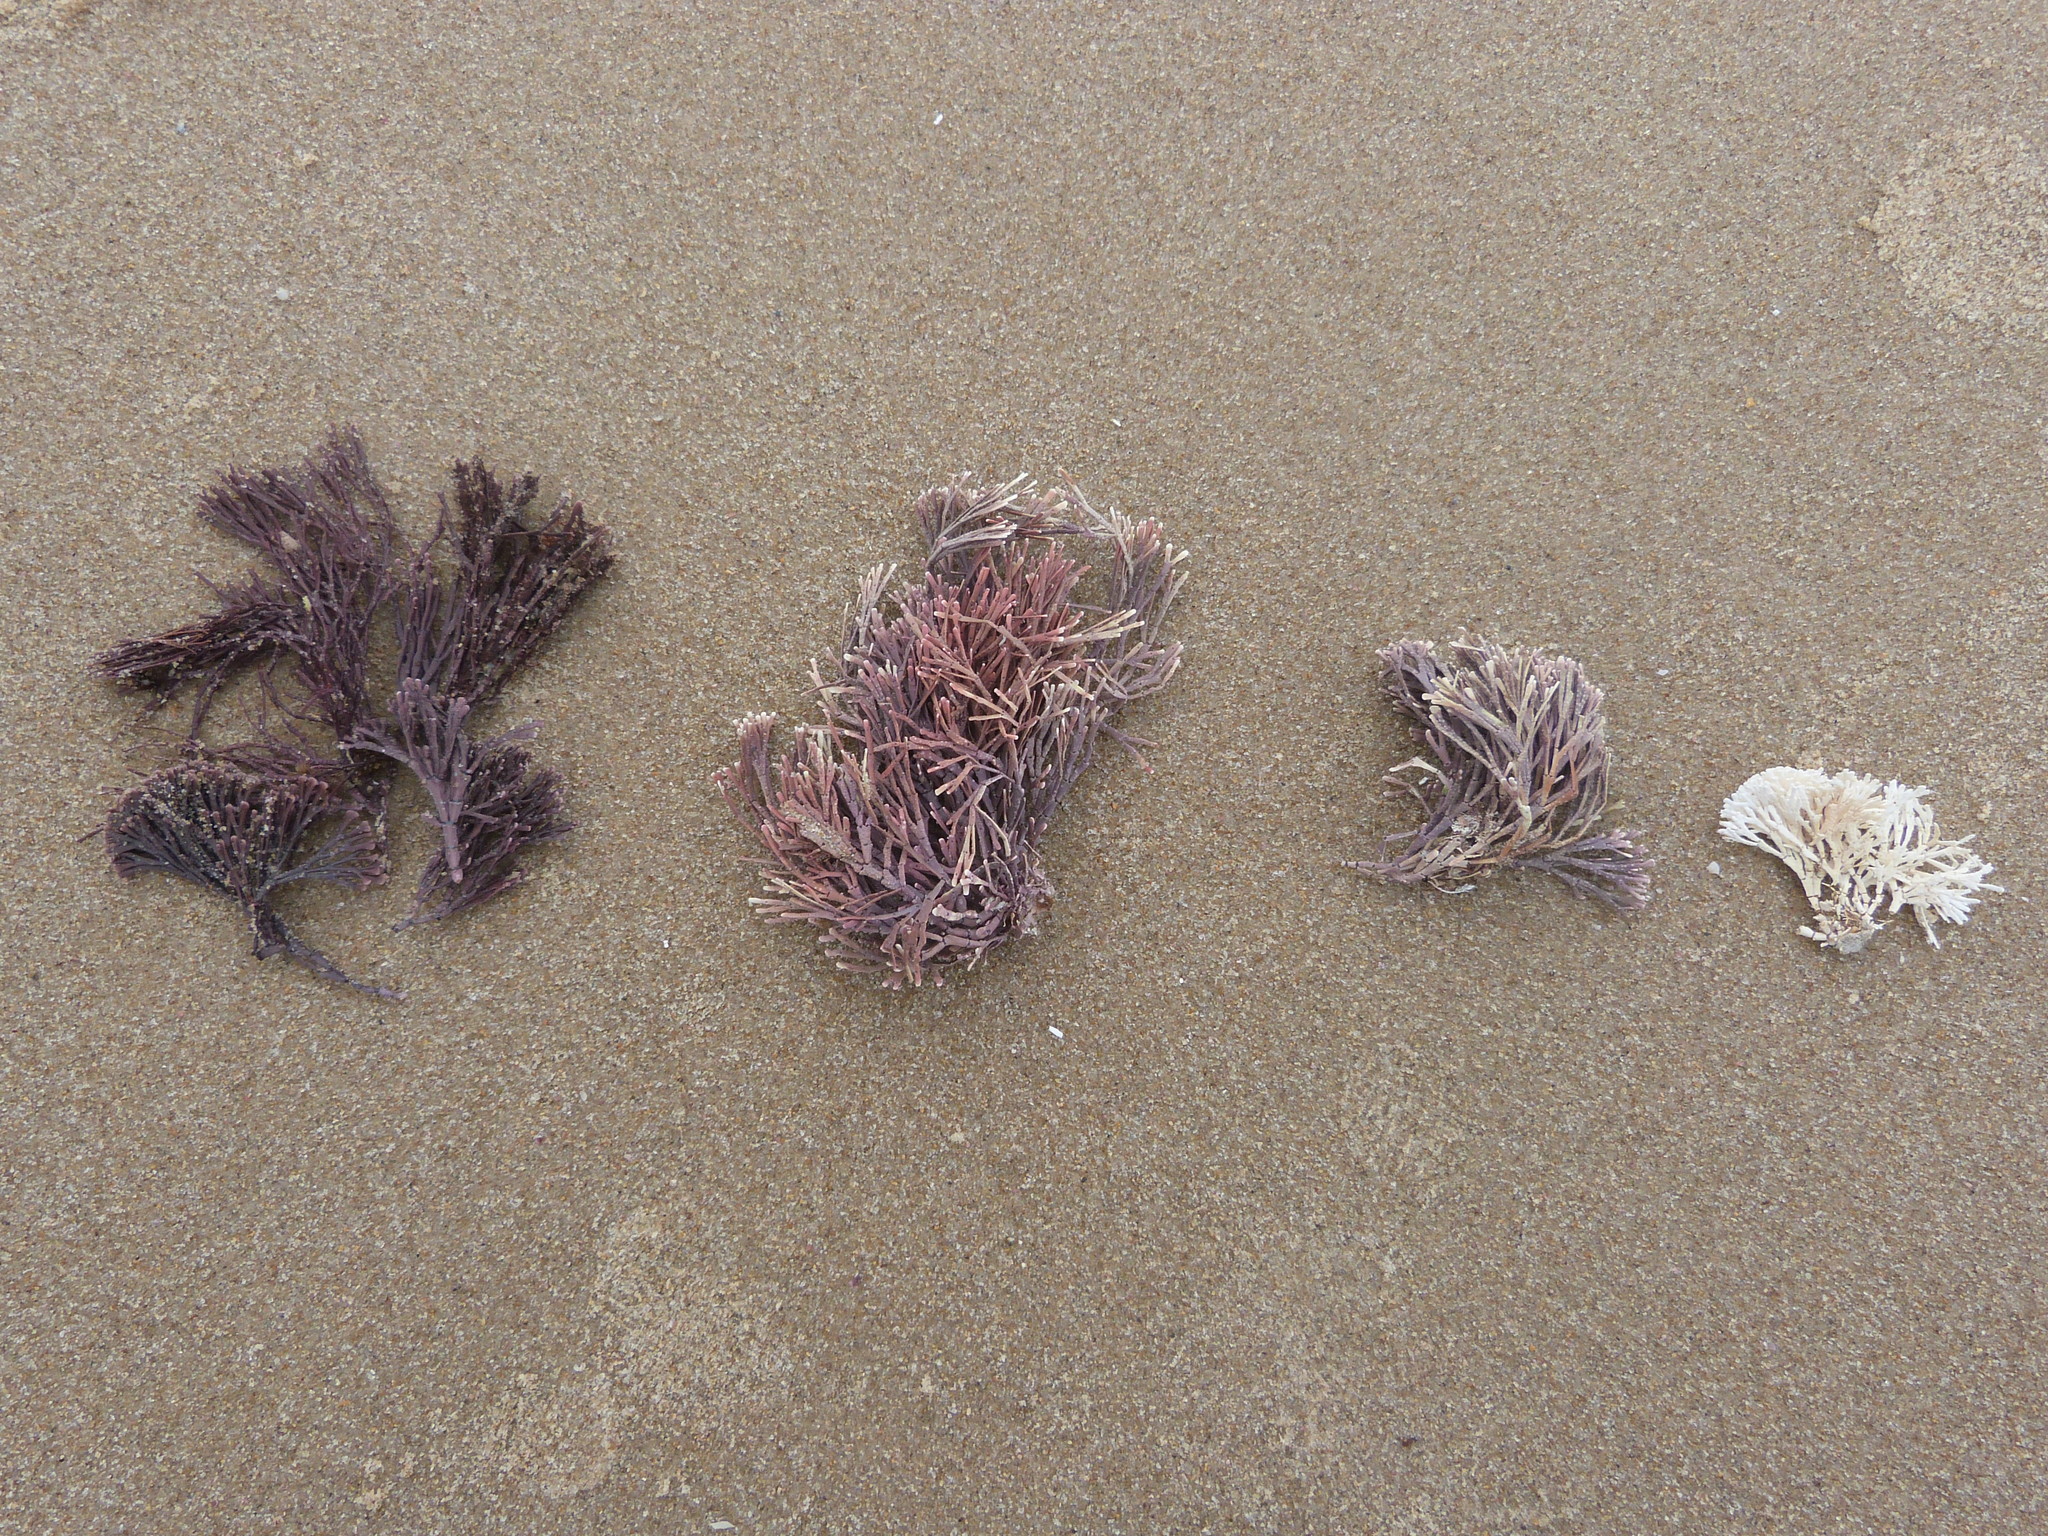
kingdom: Plantae
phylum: Rhodophyta
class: Florideophyceae
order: Corallinales
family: Lithophyllaceae
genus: Amphiroa
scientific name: Amphiroa anceps
